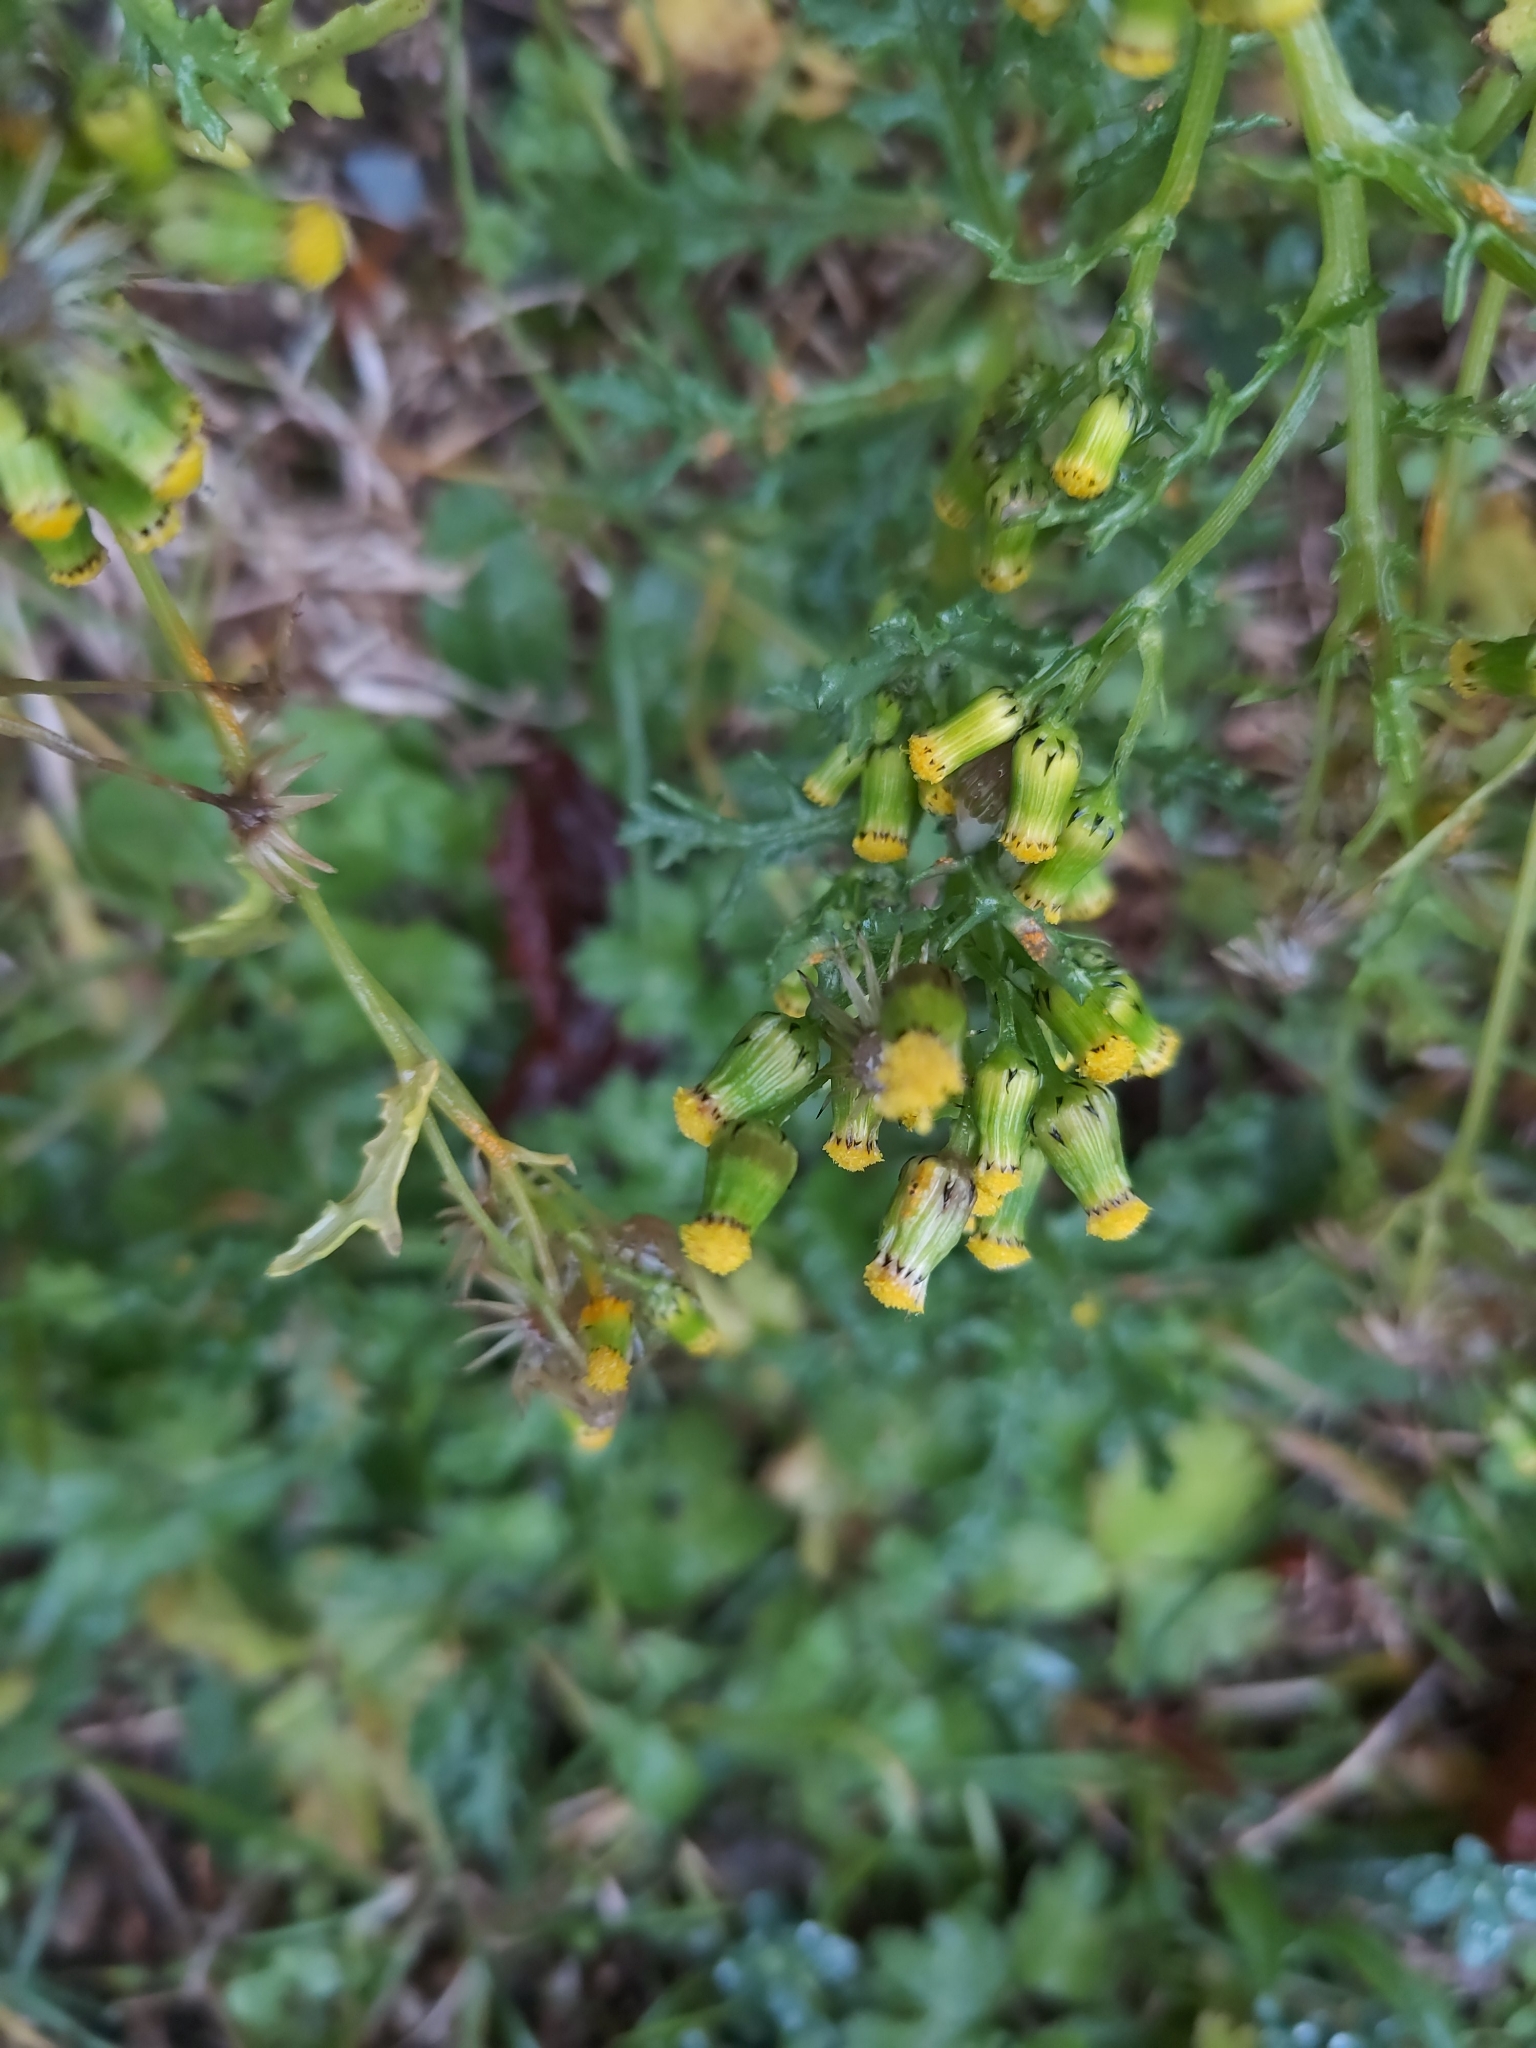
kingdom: Plantae
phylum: Tracheophyta
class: Magnoliopsida
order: Asterales
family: Asteraceae
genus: Senecio
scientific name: Senecio vulgaris
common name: Old-man-in-the-spring
